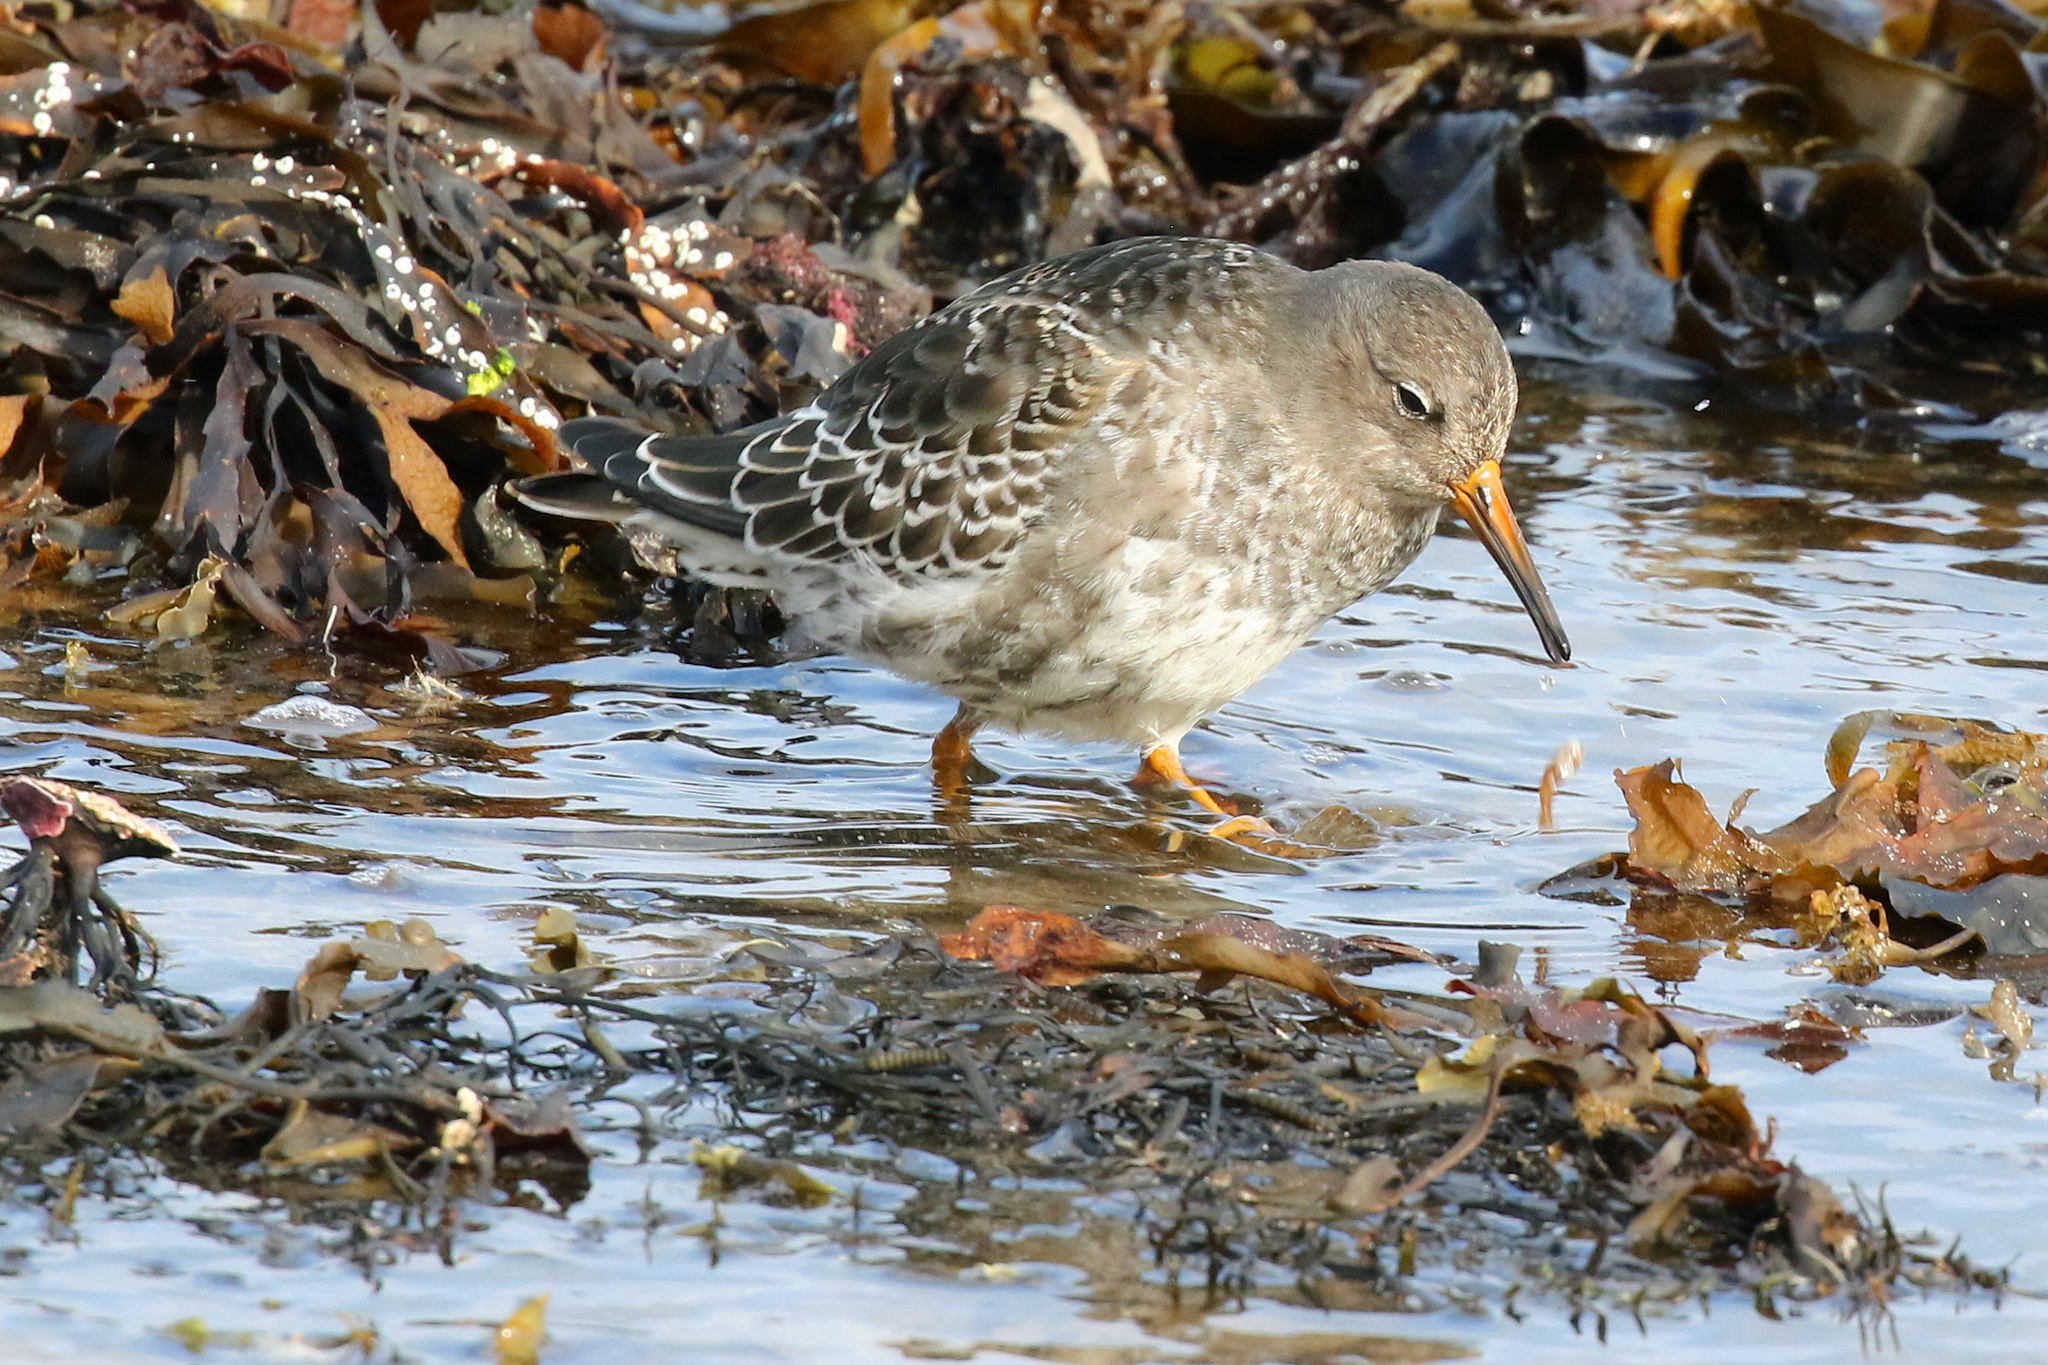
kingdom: Animalia
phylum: Chordata
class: Aves
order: Charadriiformes
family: Scolopacidae
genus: Calidris
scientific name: Calidris maritima
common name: Purple sandpiper
